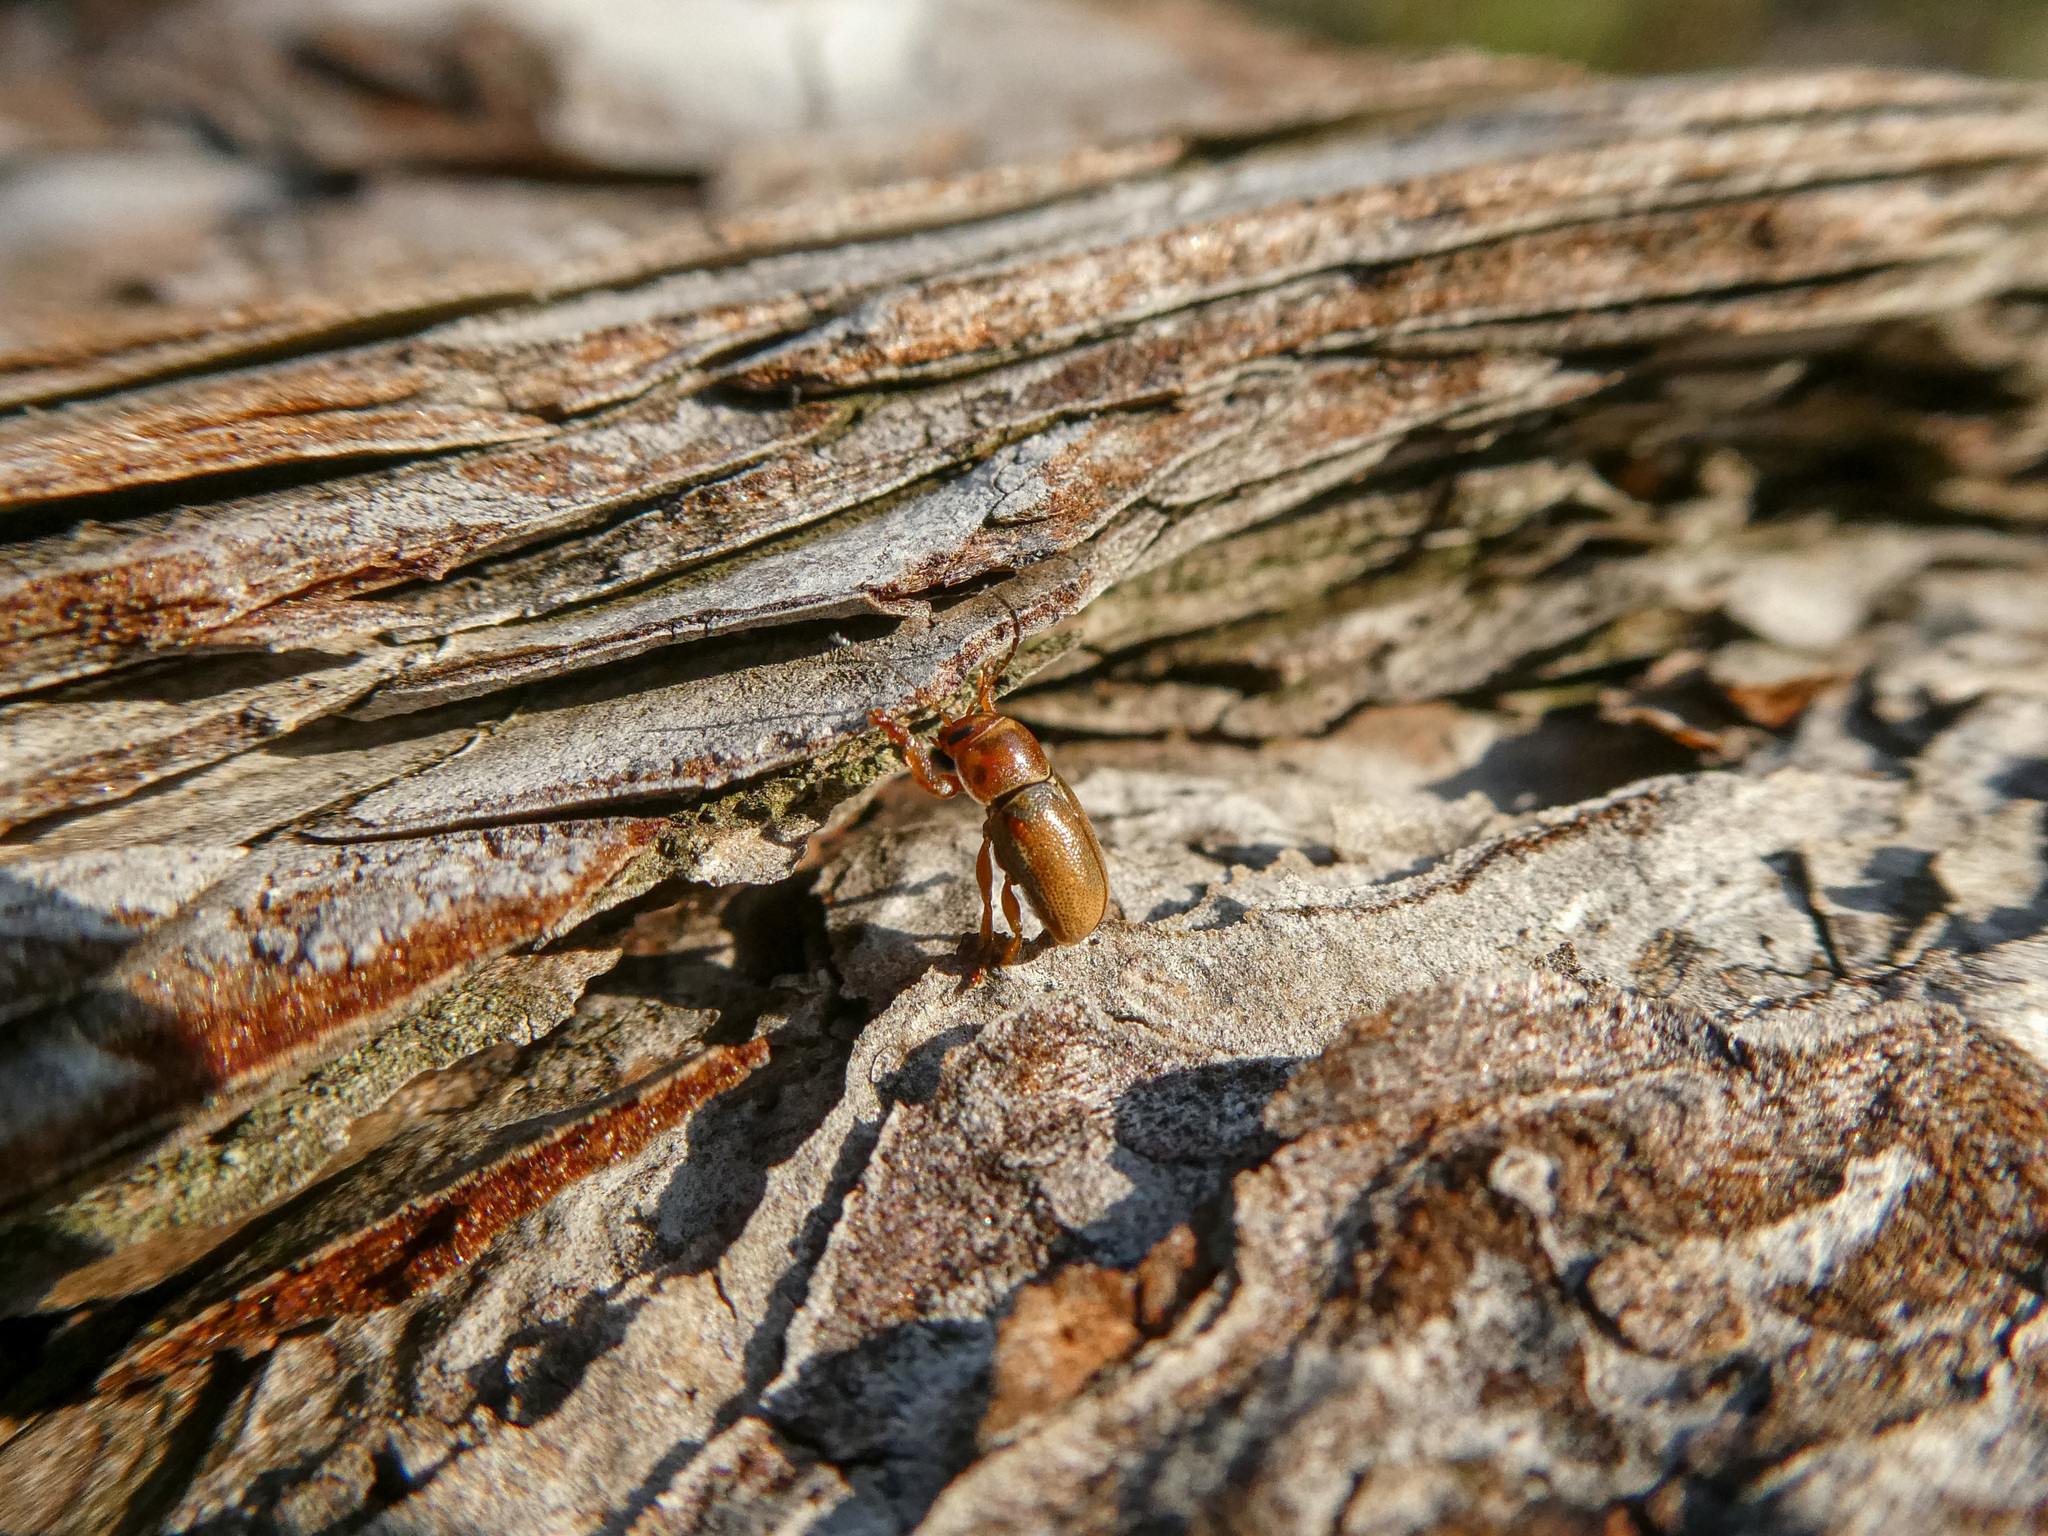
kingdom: Animalia
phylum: Arthropoda
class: Insecta
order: Coleoptera
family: Chrysomelidae
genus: Cryptocephalus
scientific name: Cryptocephalus pini
